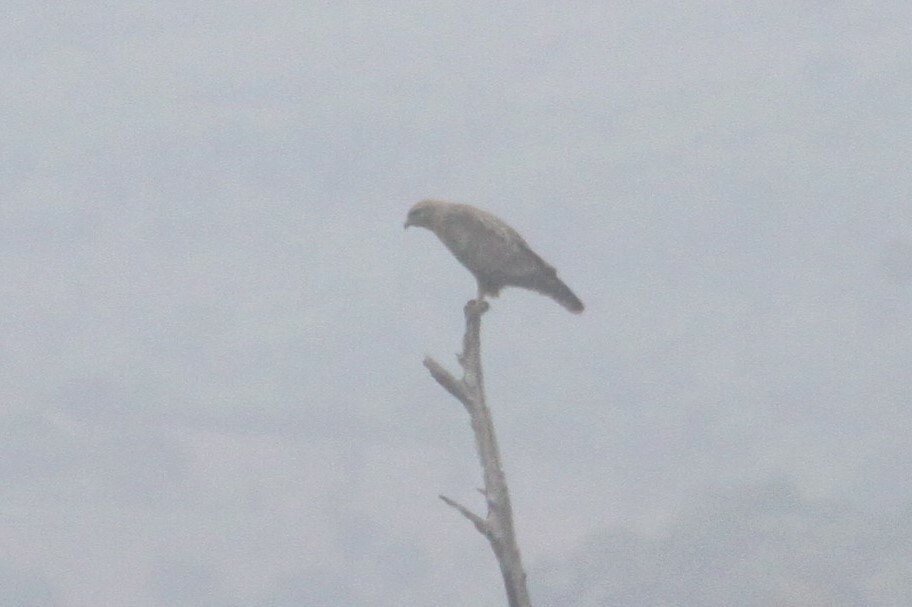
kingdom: Animalia
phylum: Chordata
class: Aves
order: Accipitriformes
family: Accipitridae
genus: Buteo
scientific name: Buteo buteo
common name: Common buzzard
